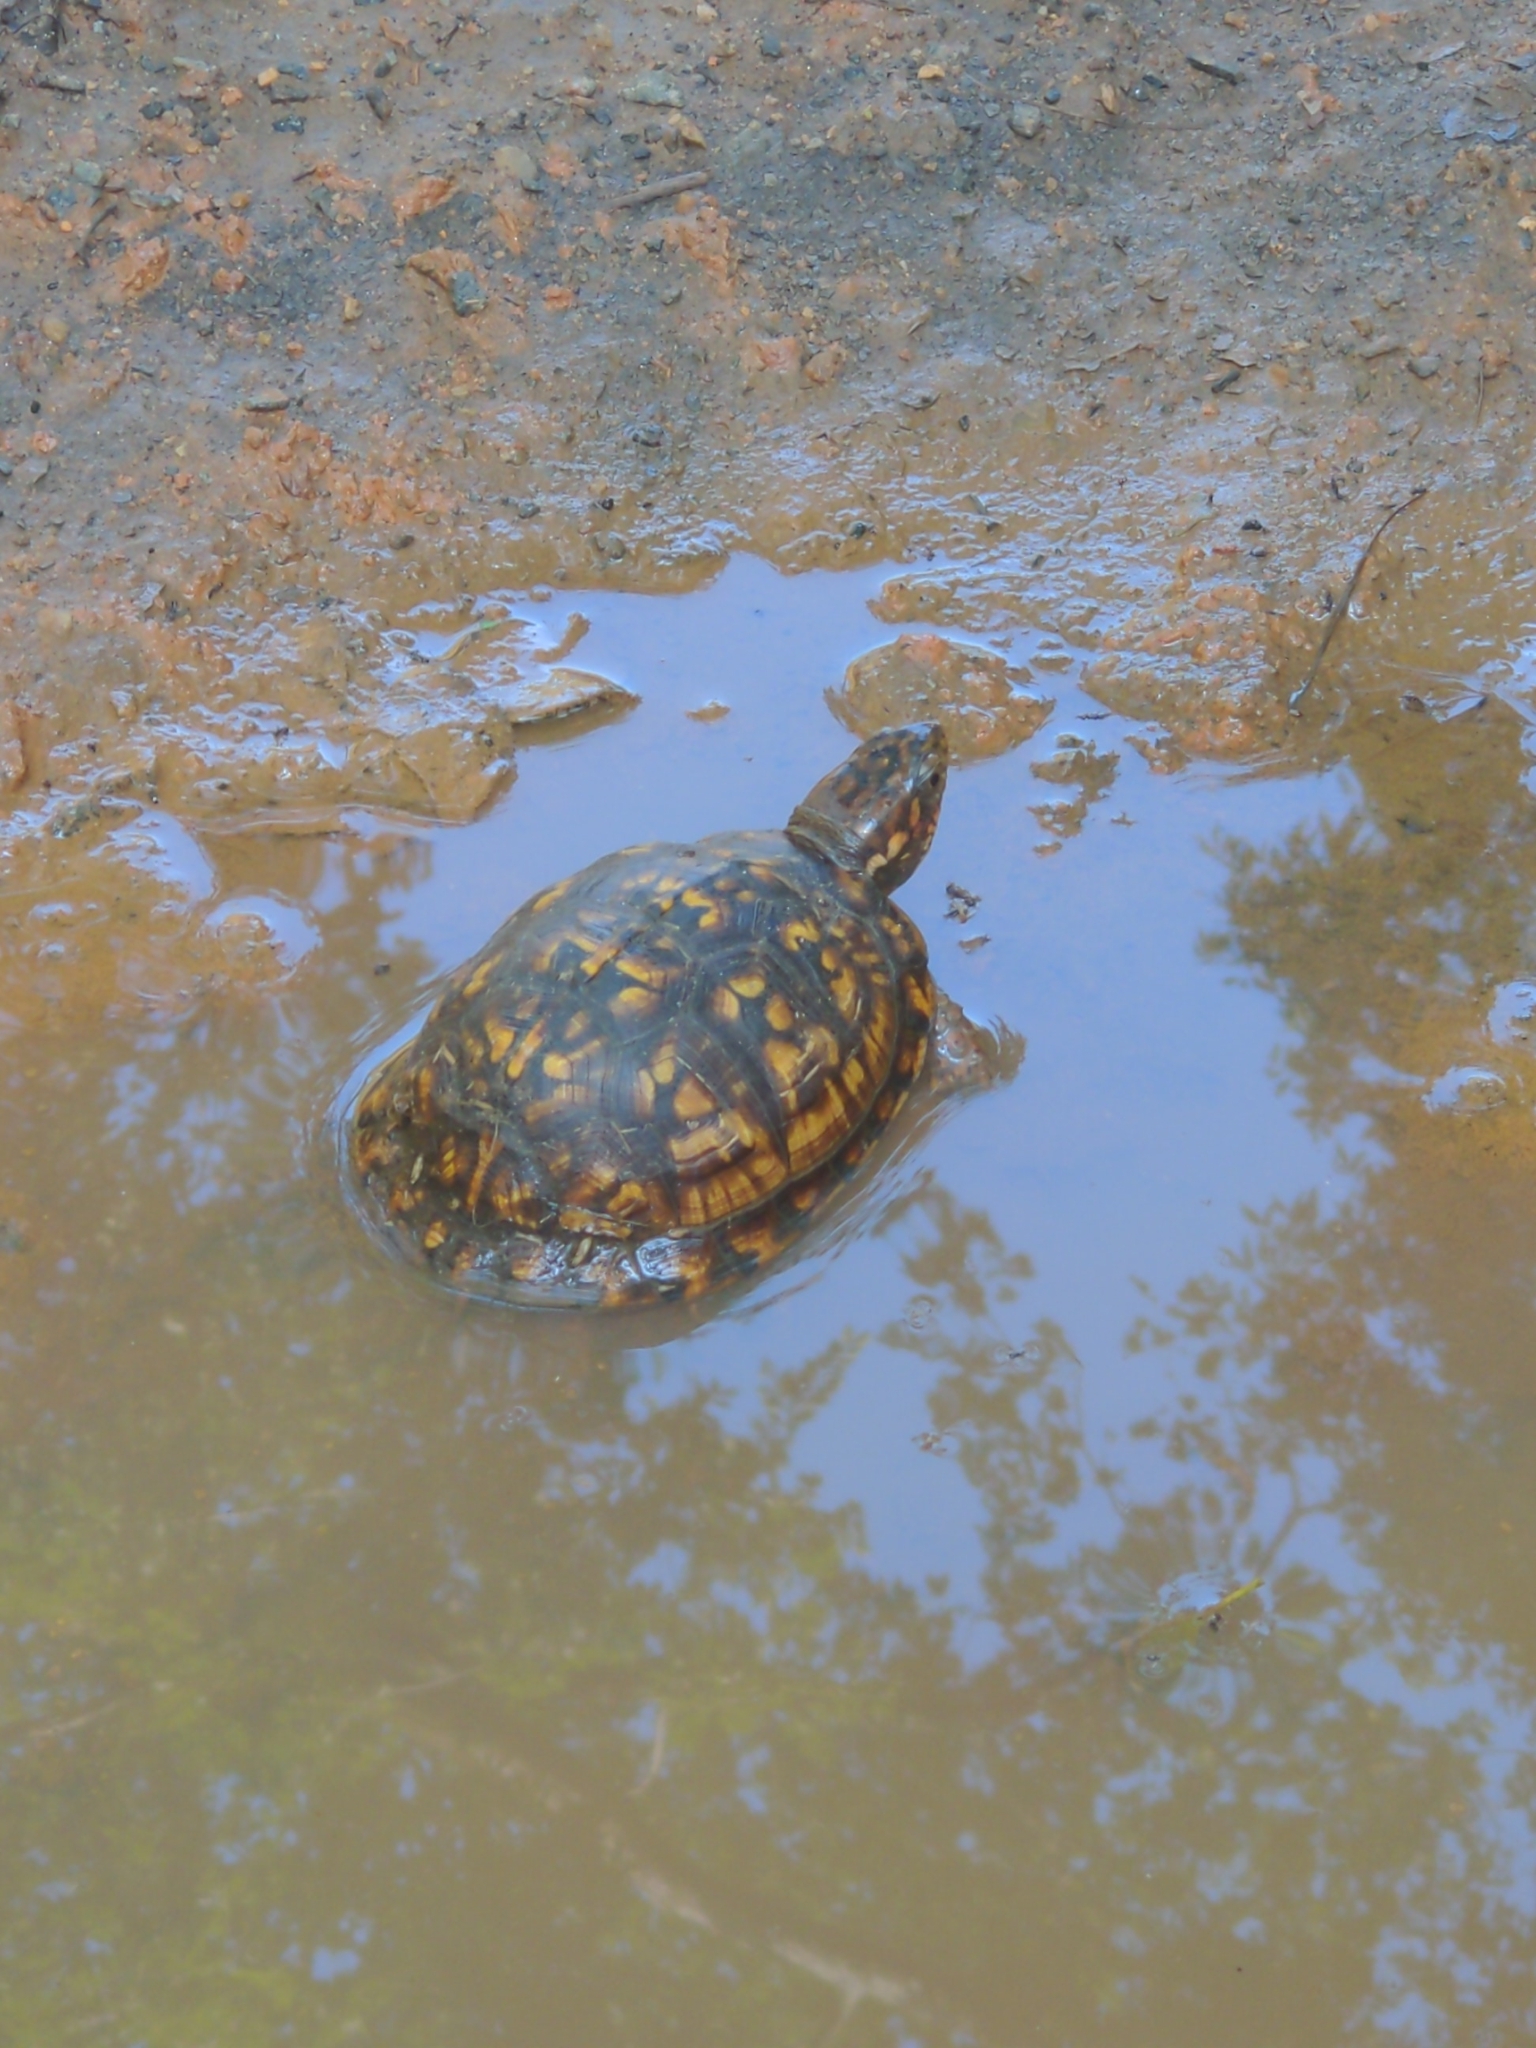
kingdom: Animalia
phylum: Chordata
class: Testudines
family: Emydidae
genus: Terrapene
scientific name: Terrapene carolina
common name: Common box turtle
